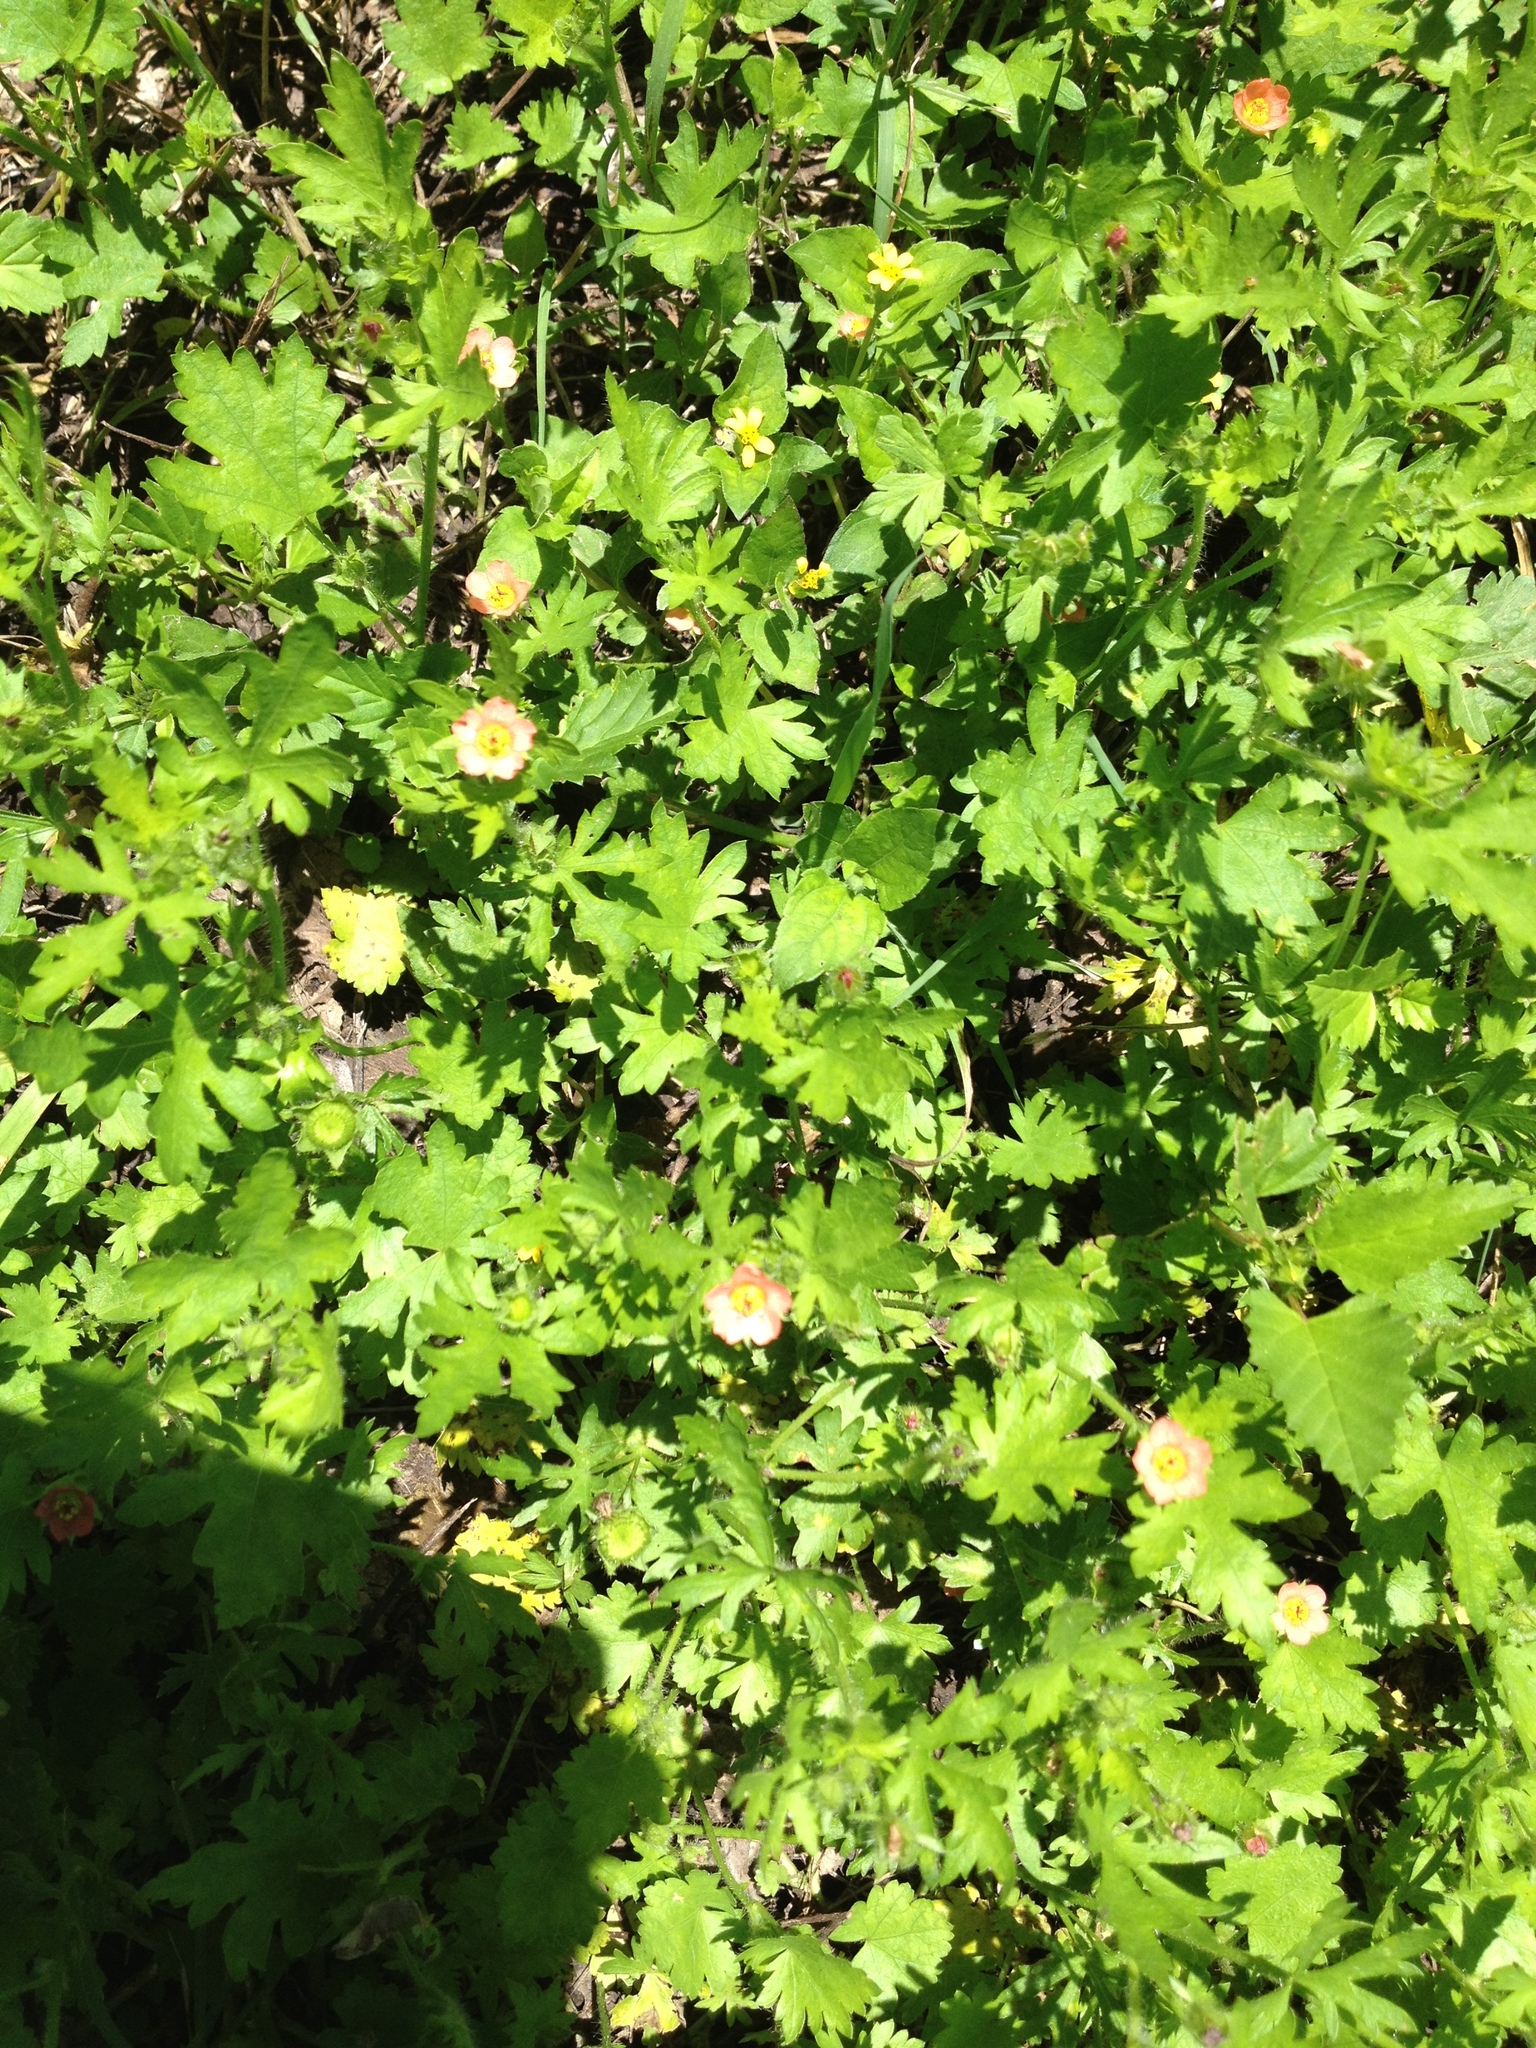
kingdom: Plantae
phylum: Tracheophyta
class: Magnoliopsida
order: Malvales
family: Malvaceae
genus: Modiola
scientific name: Modiola caroliniana
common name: Carolina bristlemallow
